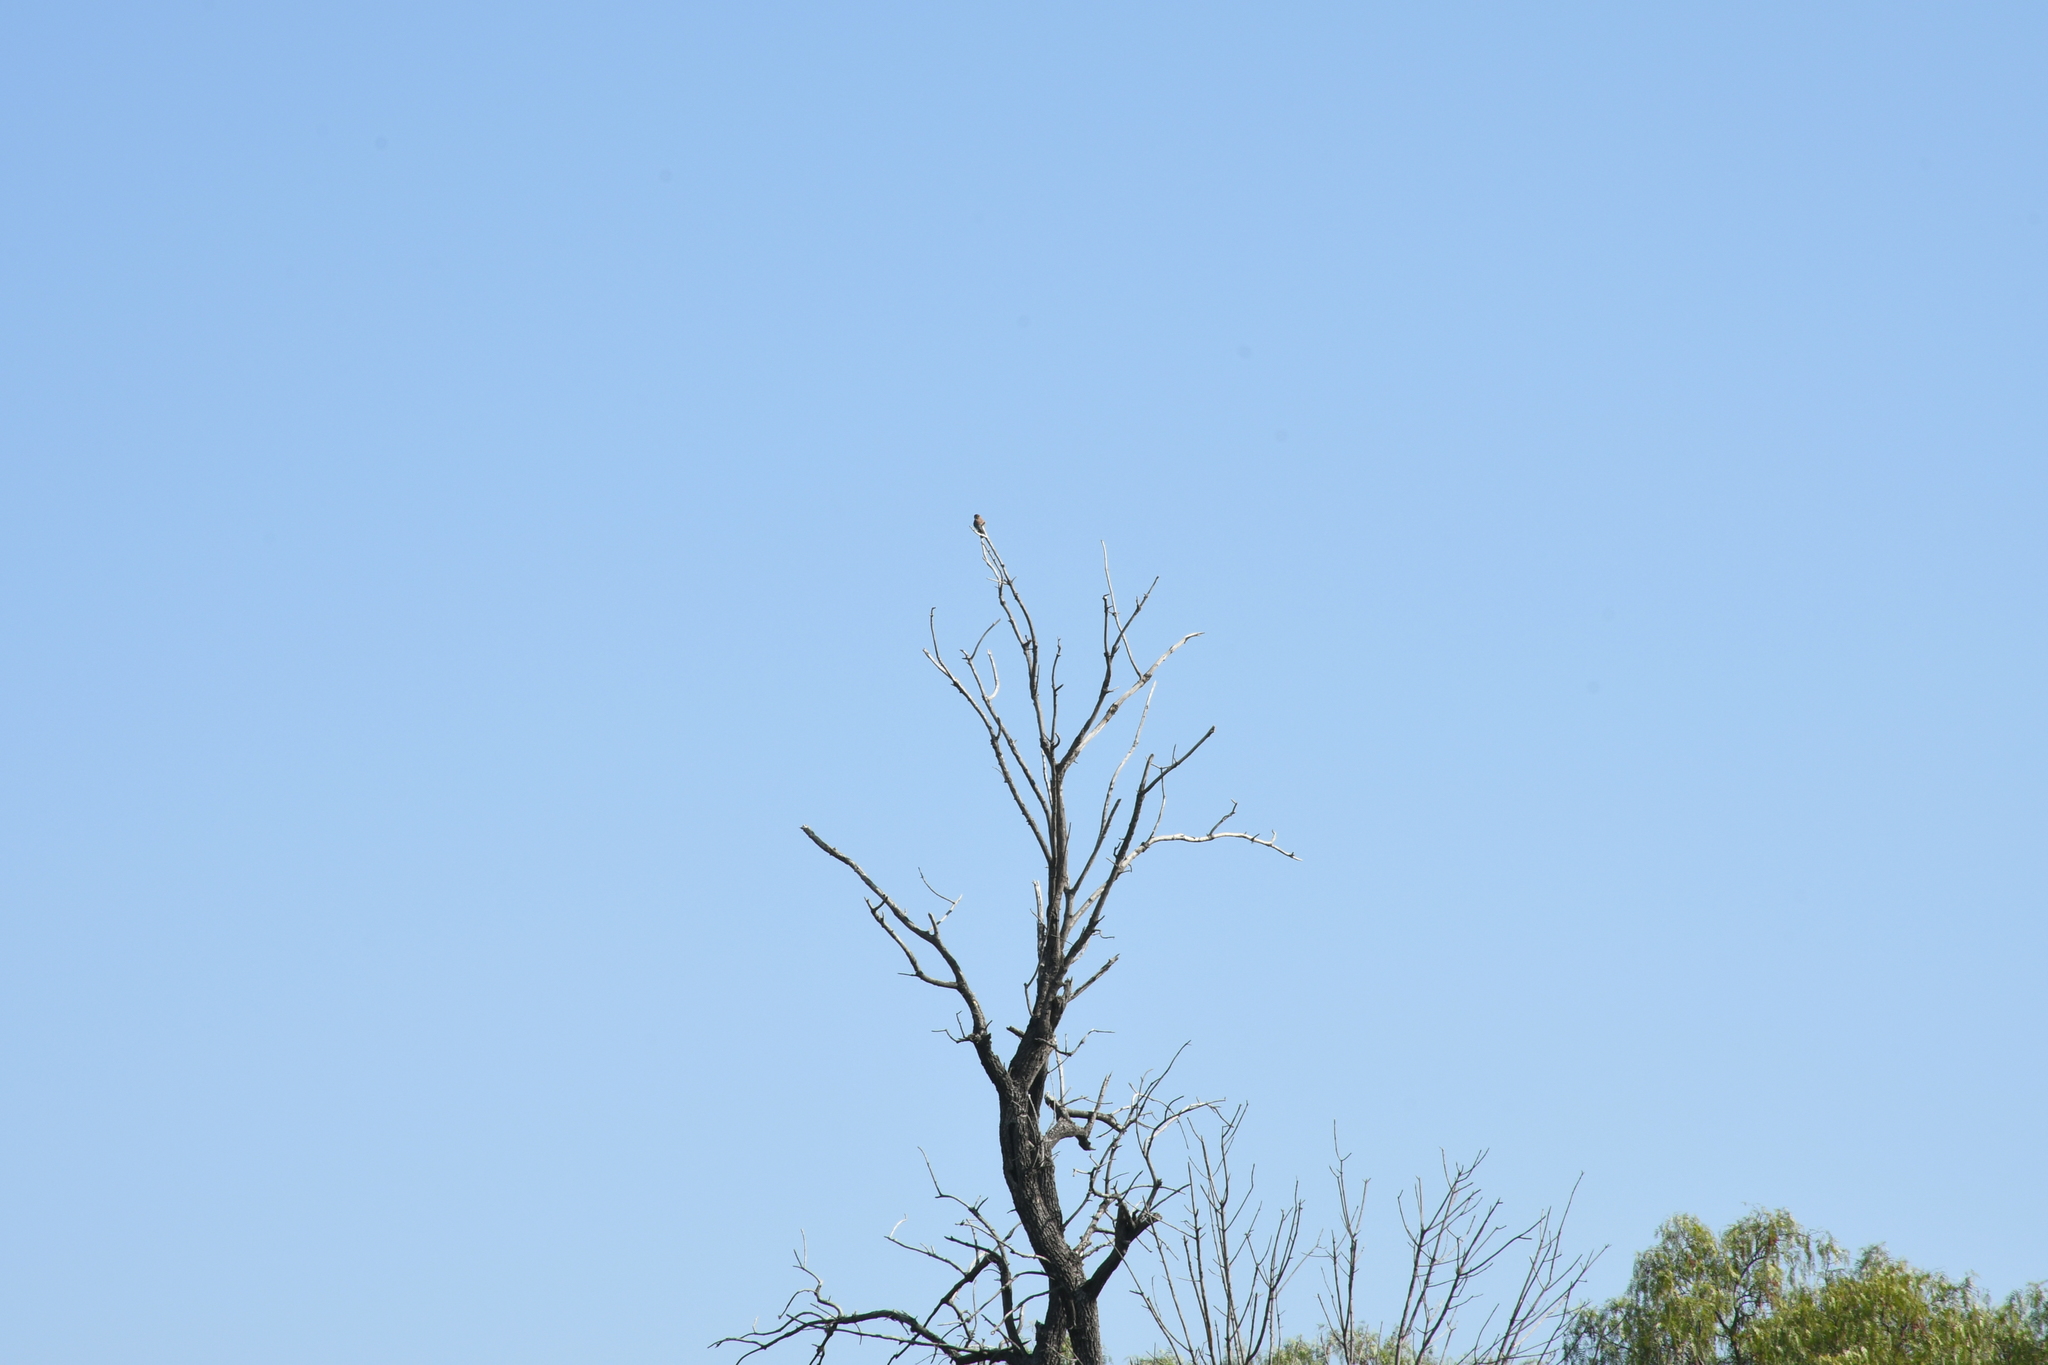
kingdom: Animalia
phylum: Chordata
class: Aves
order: Falconiformes
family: Falconidae
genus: Falco
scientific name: Falco sparverius
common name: American kestrel
